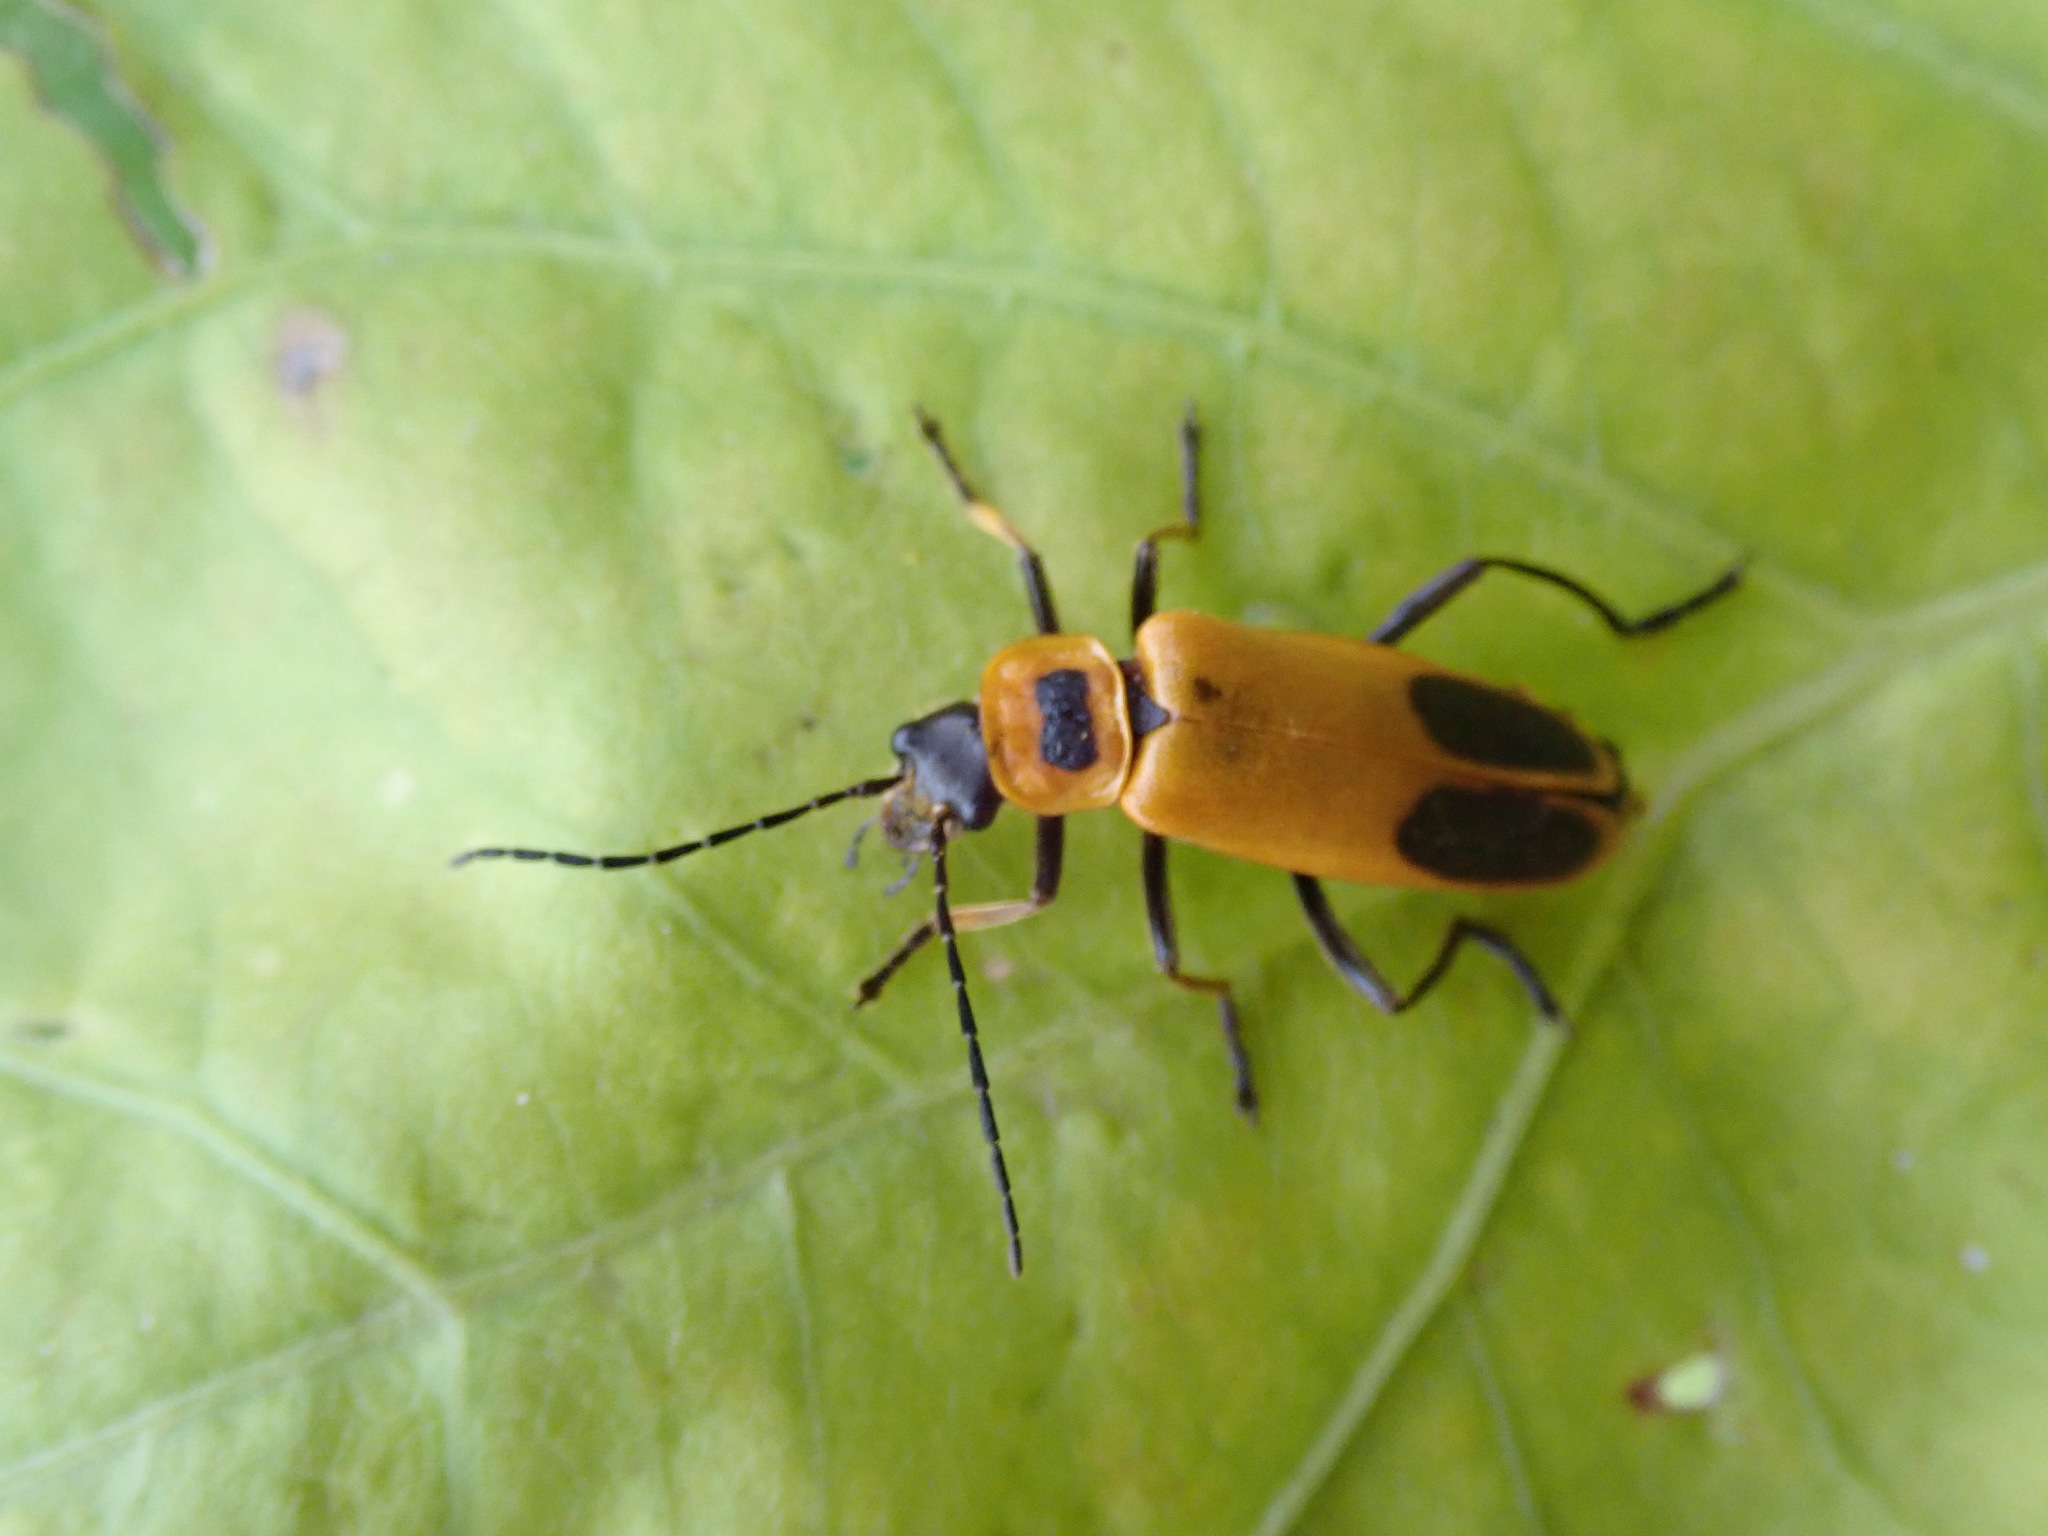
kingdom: Animalia
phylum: Arthropoda
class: Insecta
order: Coleoptera
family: Cantharidae
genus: Chauliognathus
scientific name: Chauliognathus pensylvanicus
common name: Goldenrod soldier beetle
